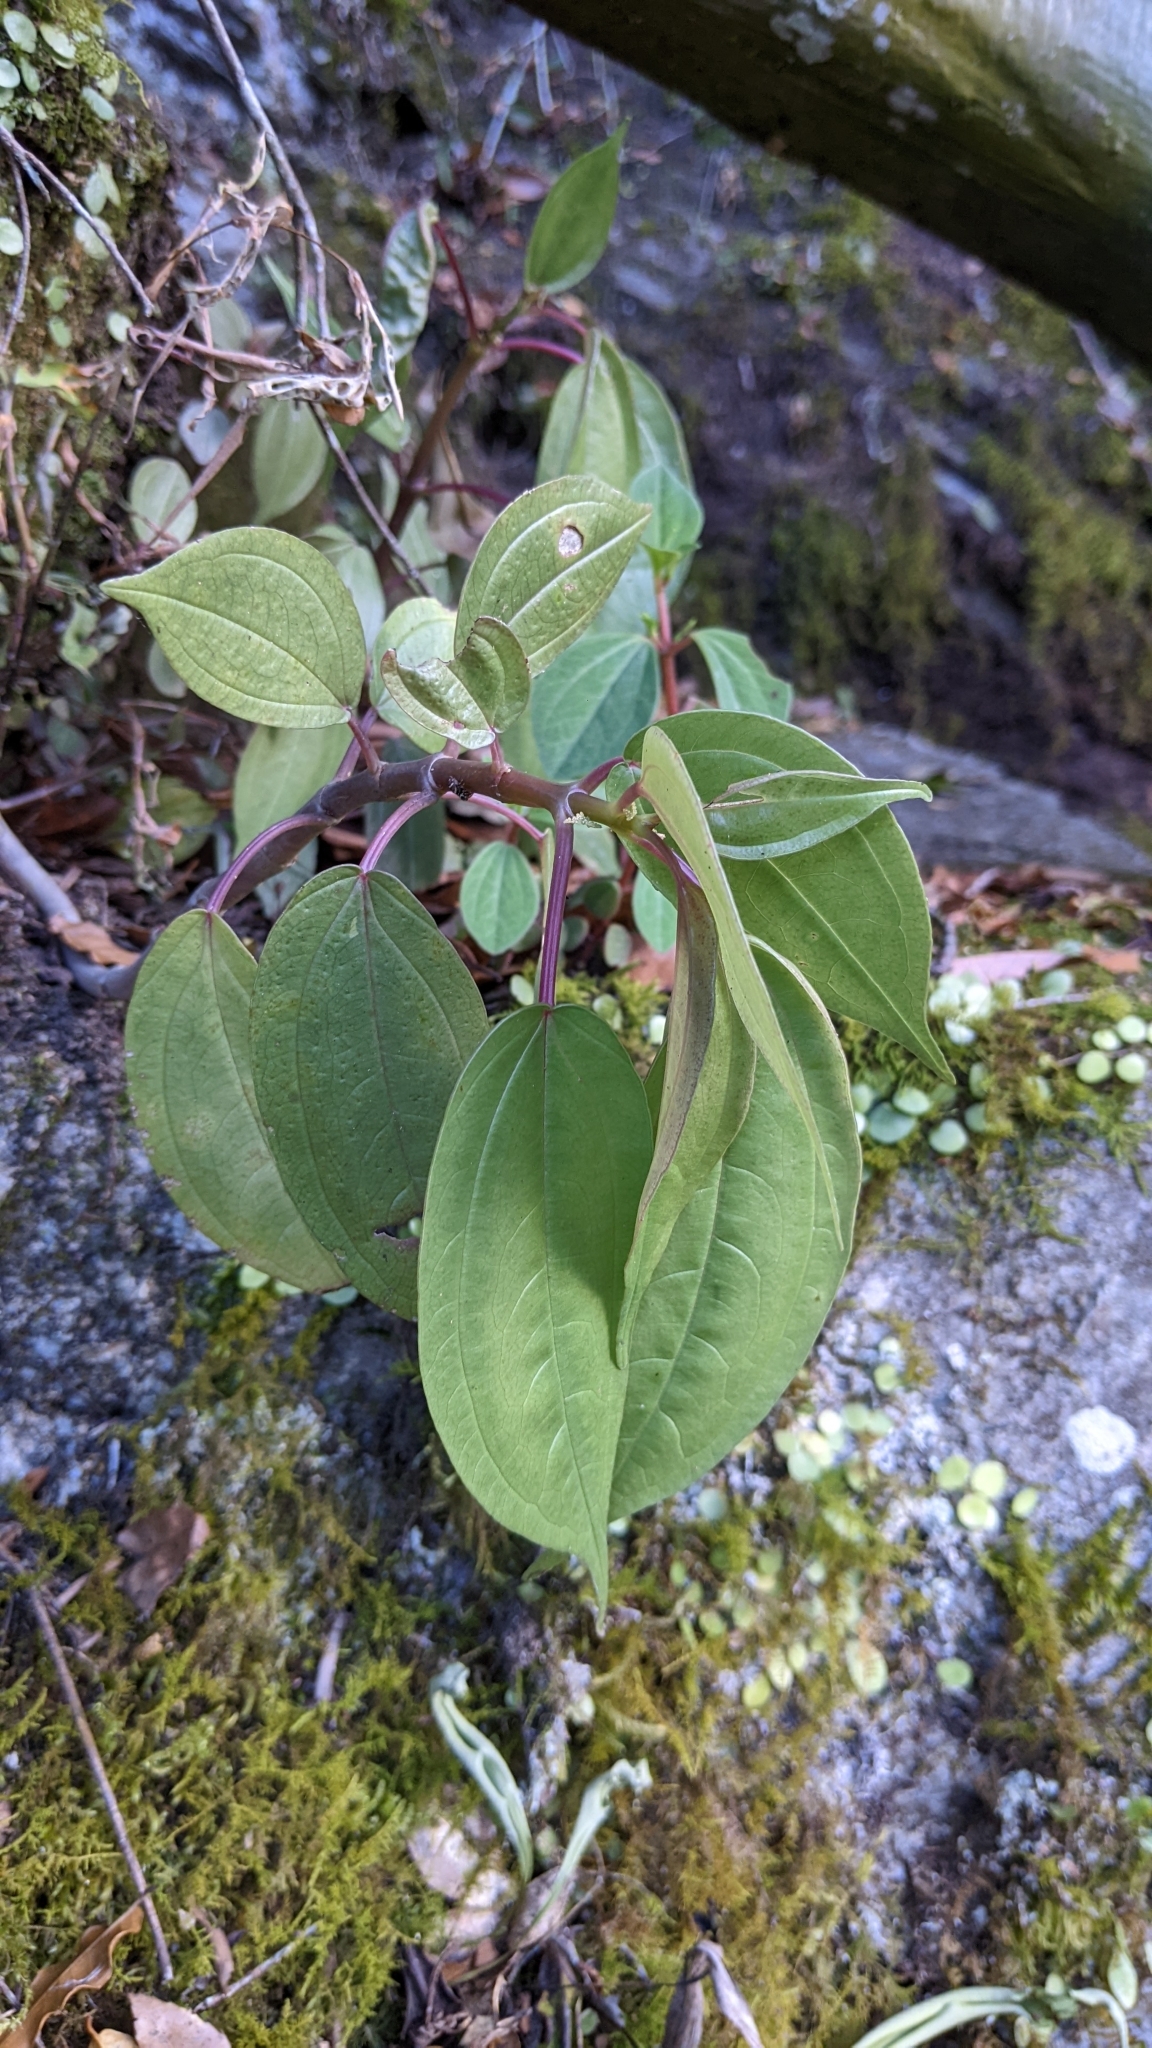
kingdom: Plantae
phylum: Tracheophyta
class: Magnoliopsida
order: Rosales
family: Urticaceae
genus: Pilea
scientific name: Pilea plataniflora
